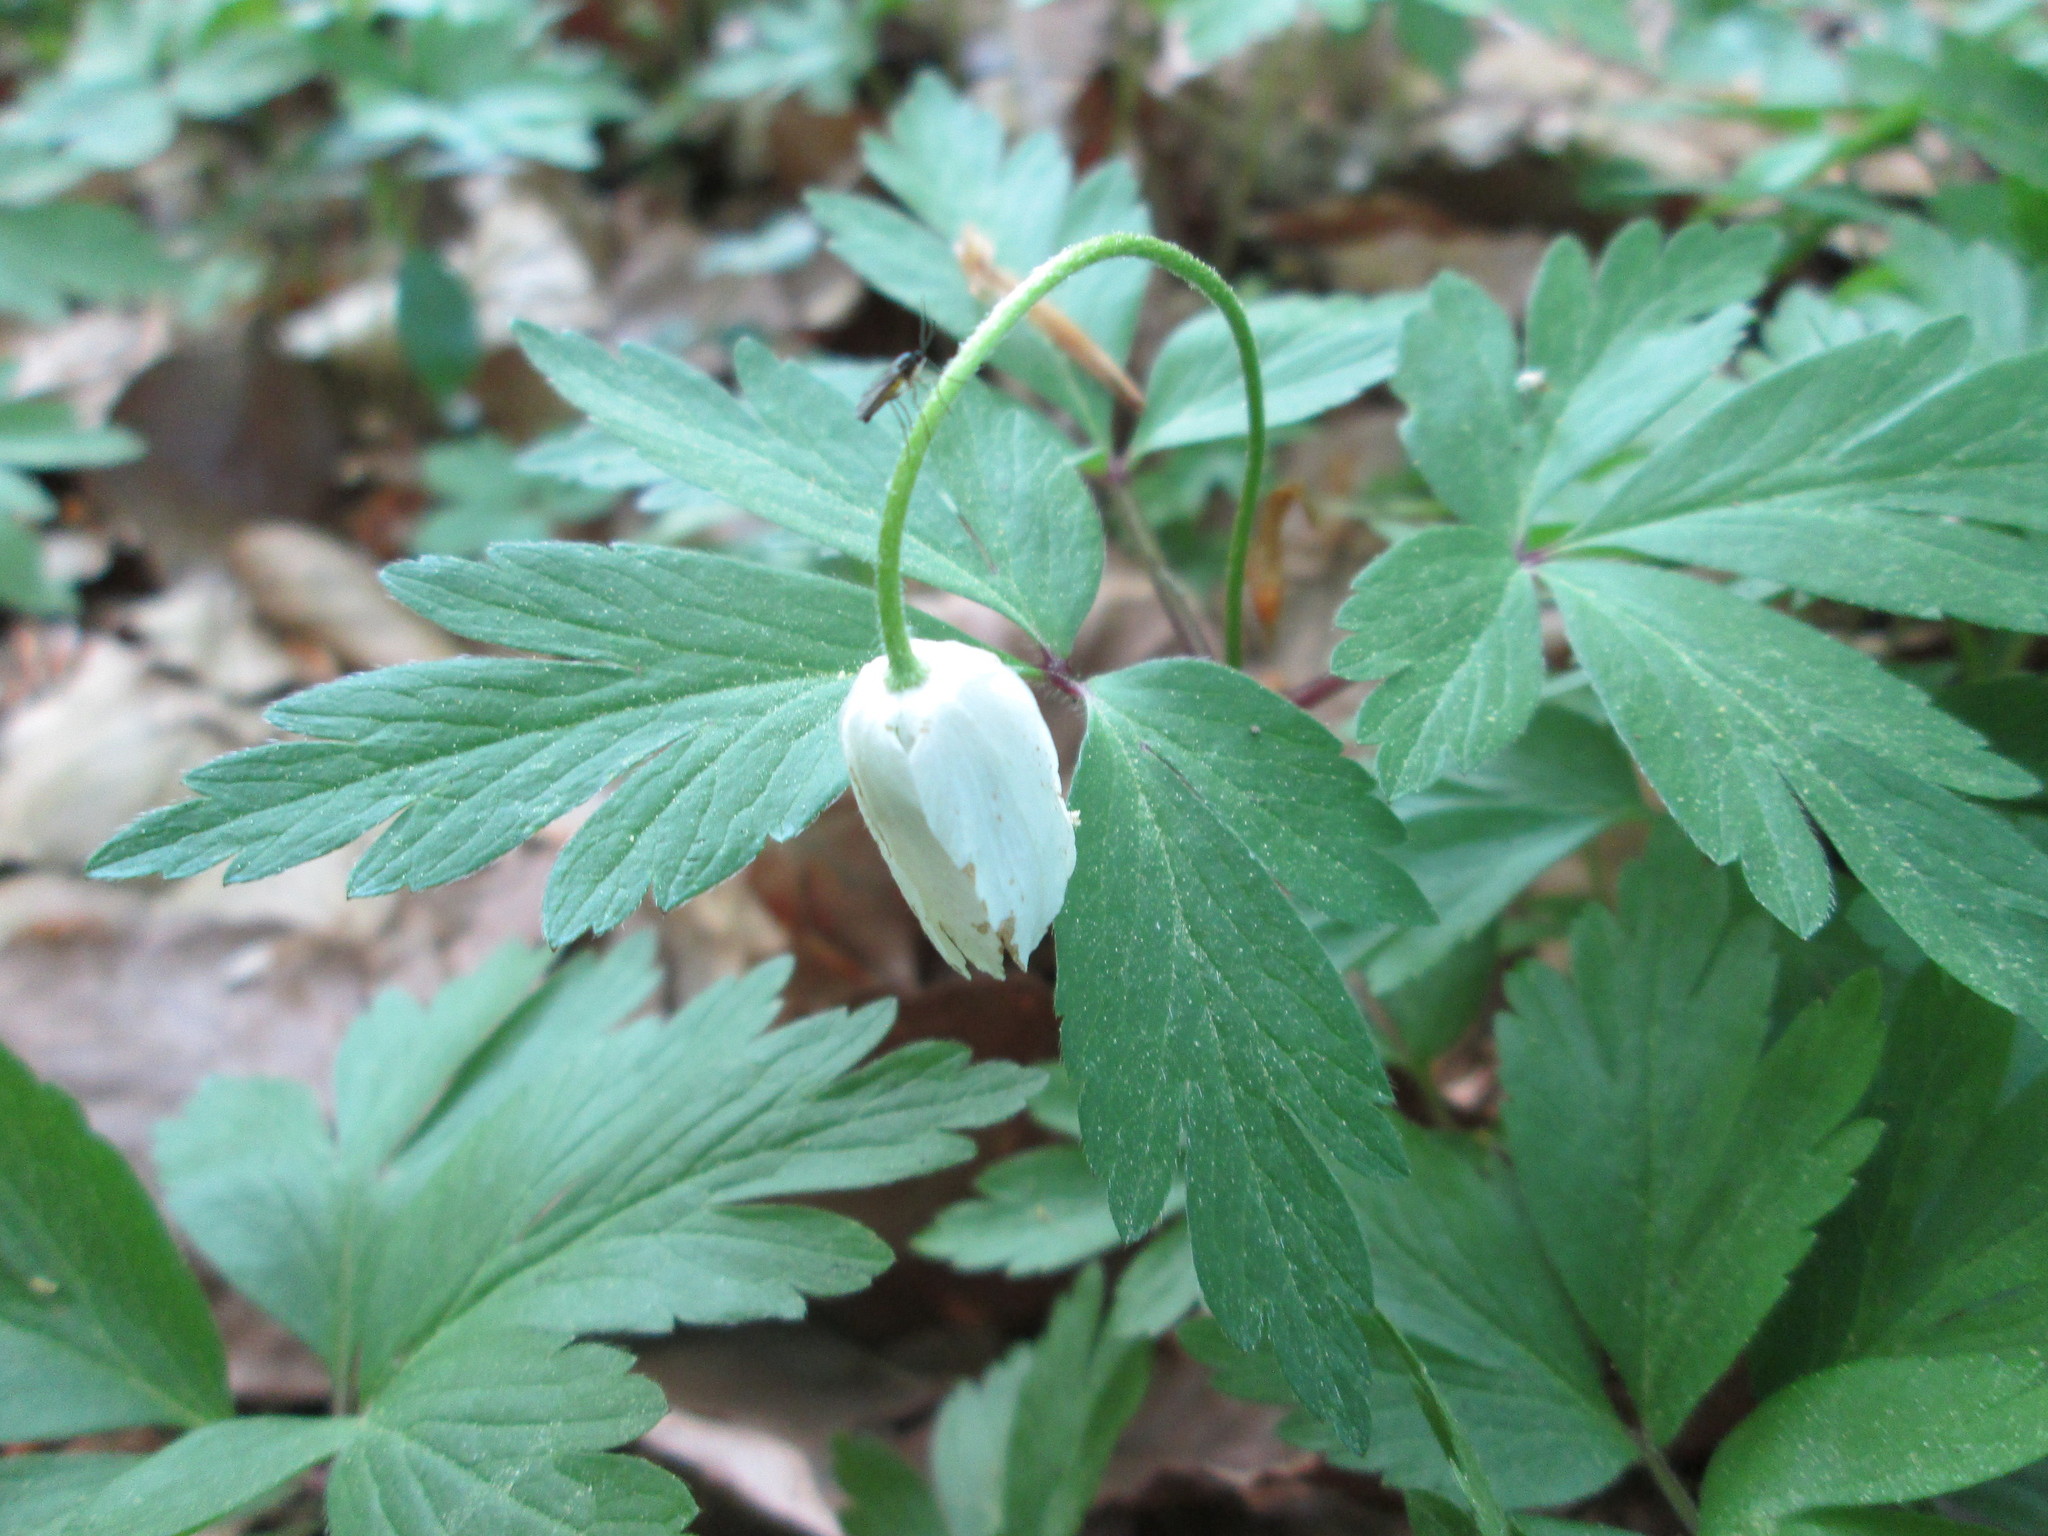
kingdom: Plantae
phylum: Tracheophyta
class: Magnoliopsida
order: Ranunculales
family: Ranunculaceae
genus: Anemone
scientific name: Anemone nemorosa
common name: Wood anemone
